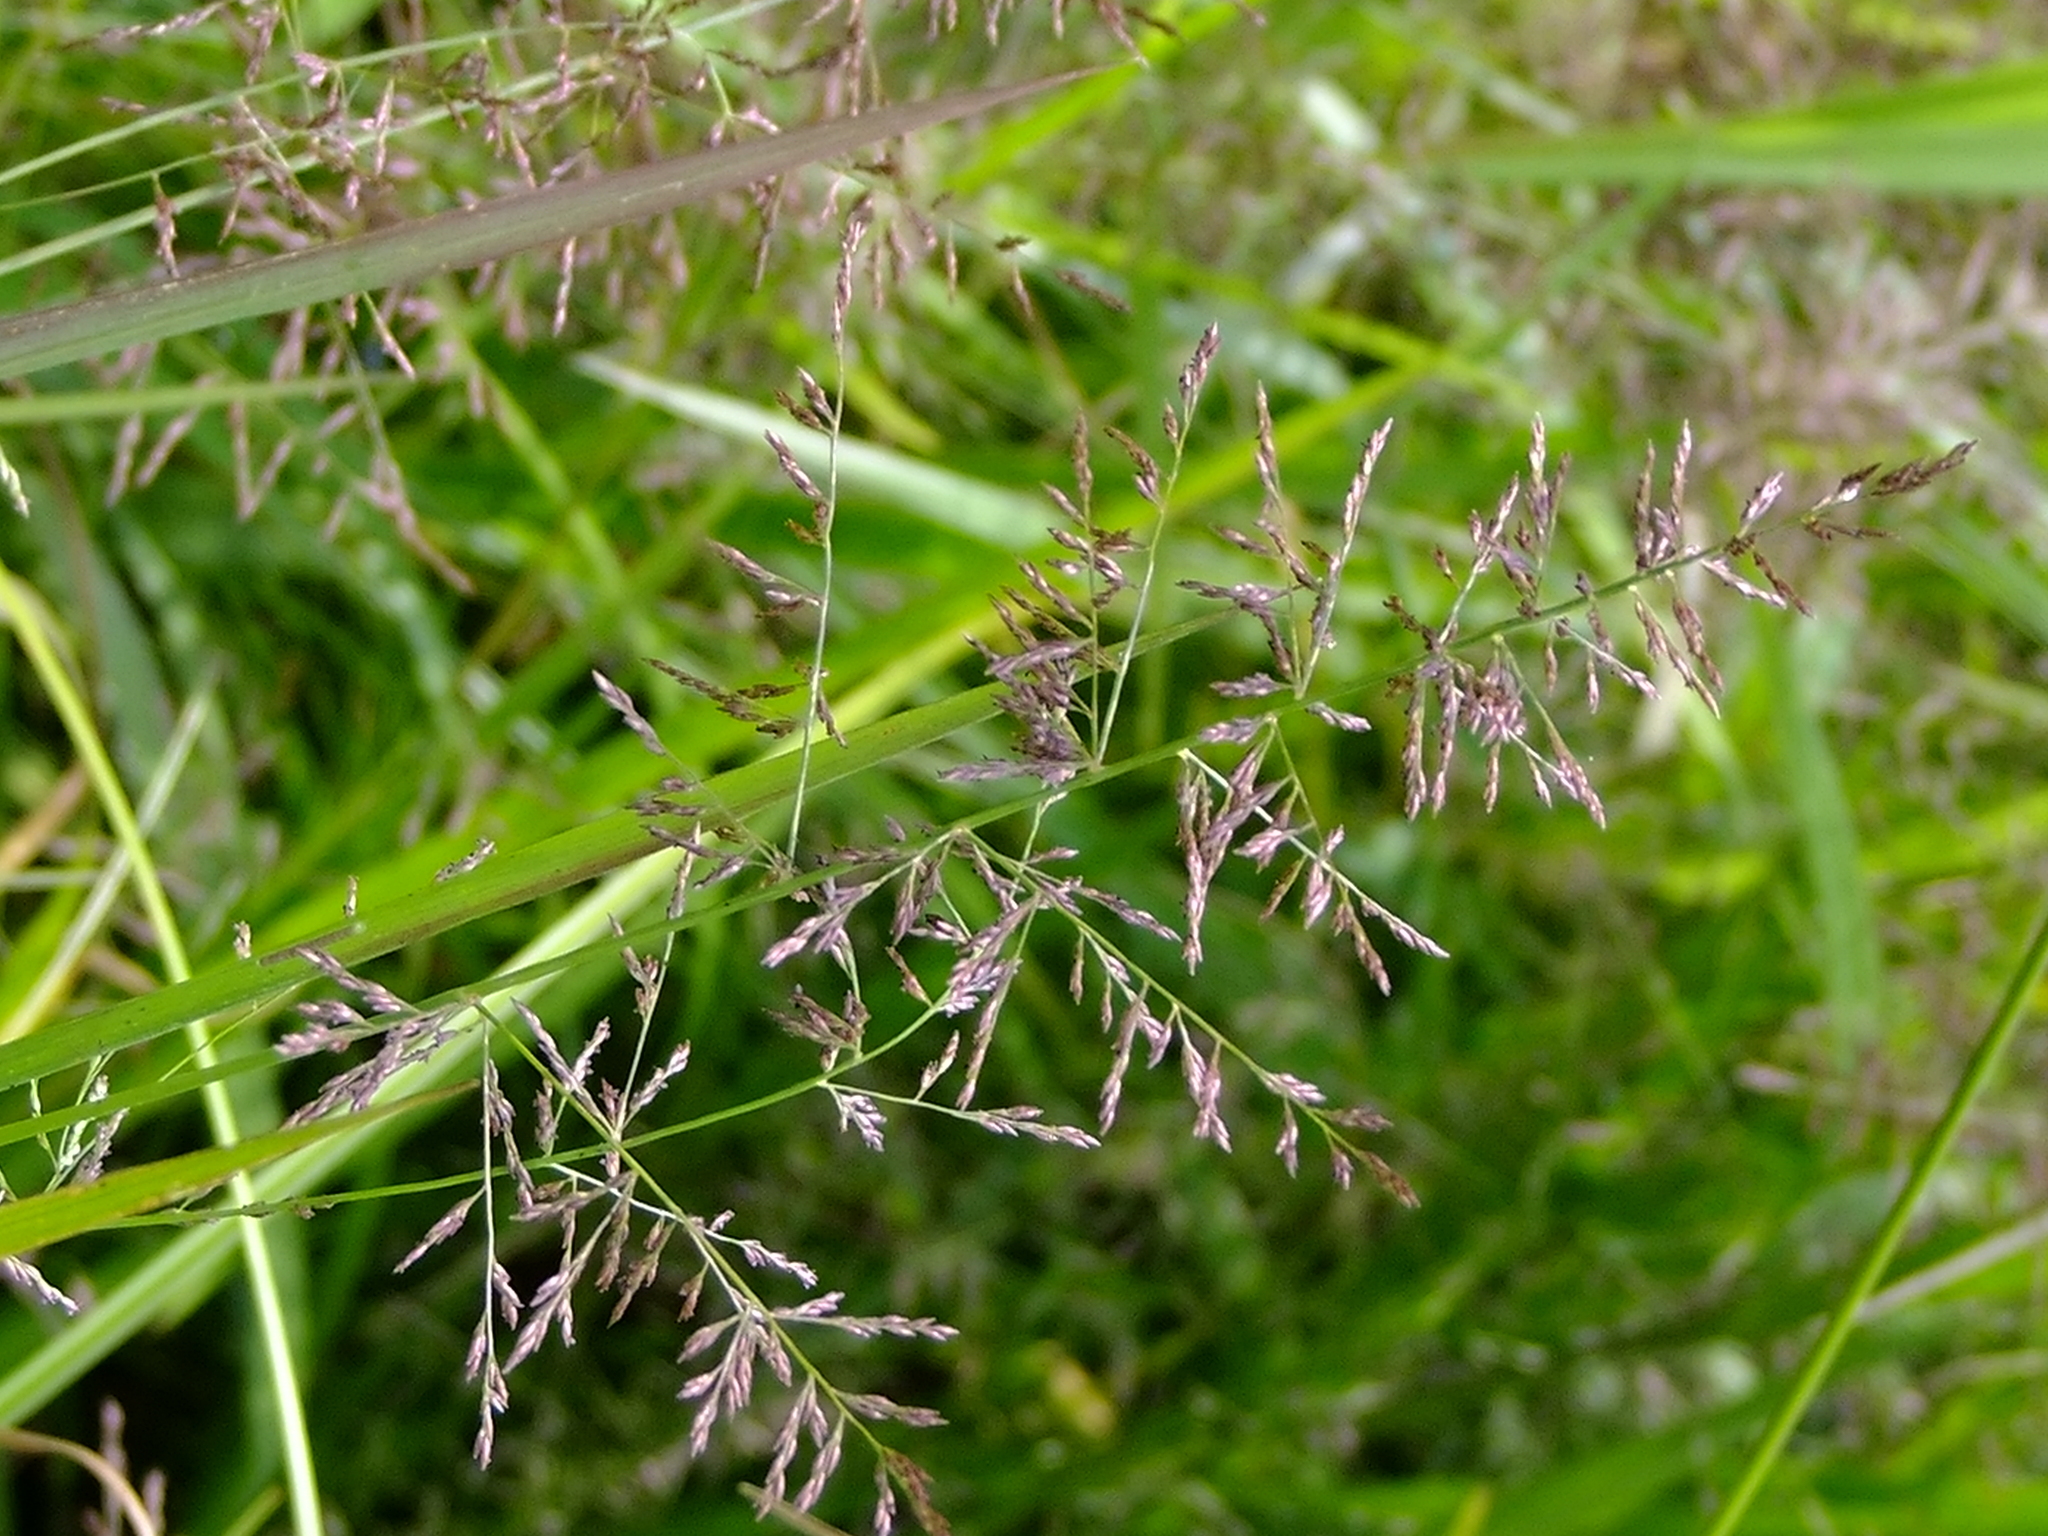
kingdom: Plantae
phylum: Tracheophyta
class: Liliopsida
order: Poales
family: Poaceae
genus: Coleataenia
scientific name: Coleataenia rigidula
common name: Redtop panicgrass
